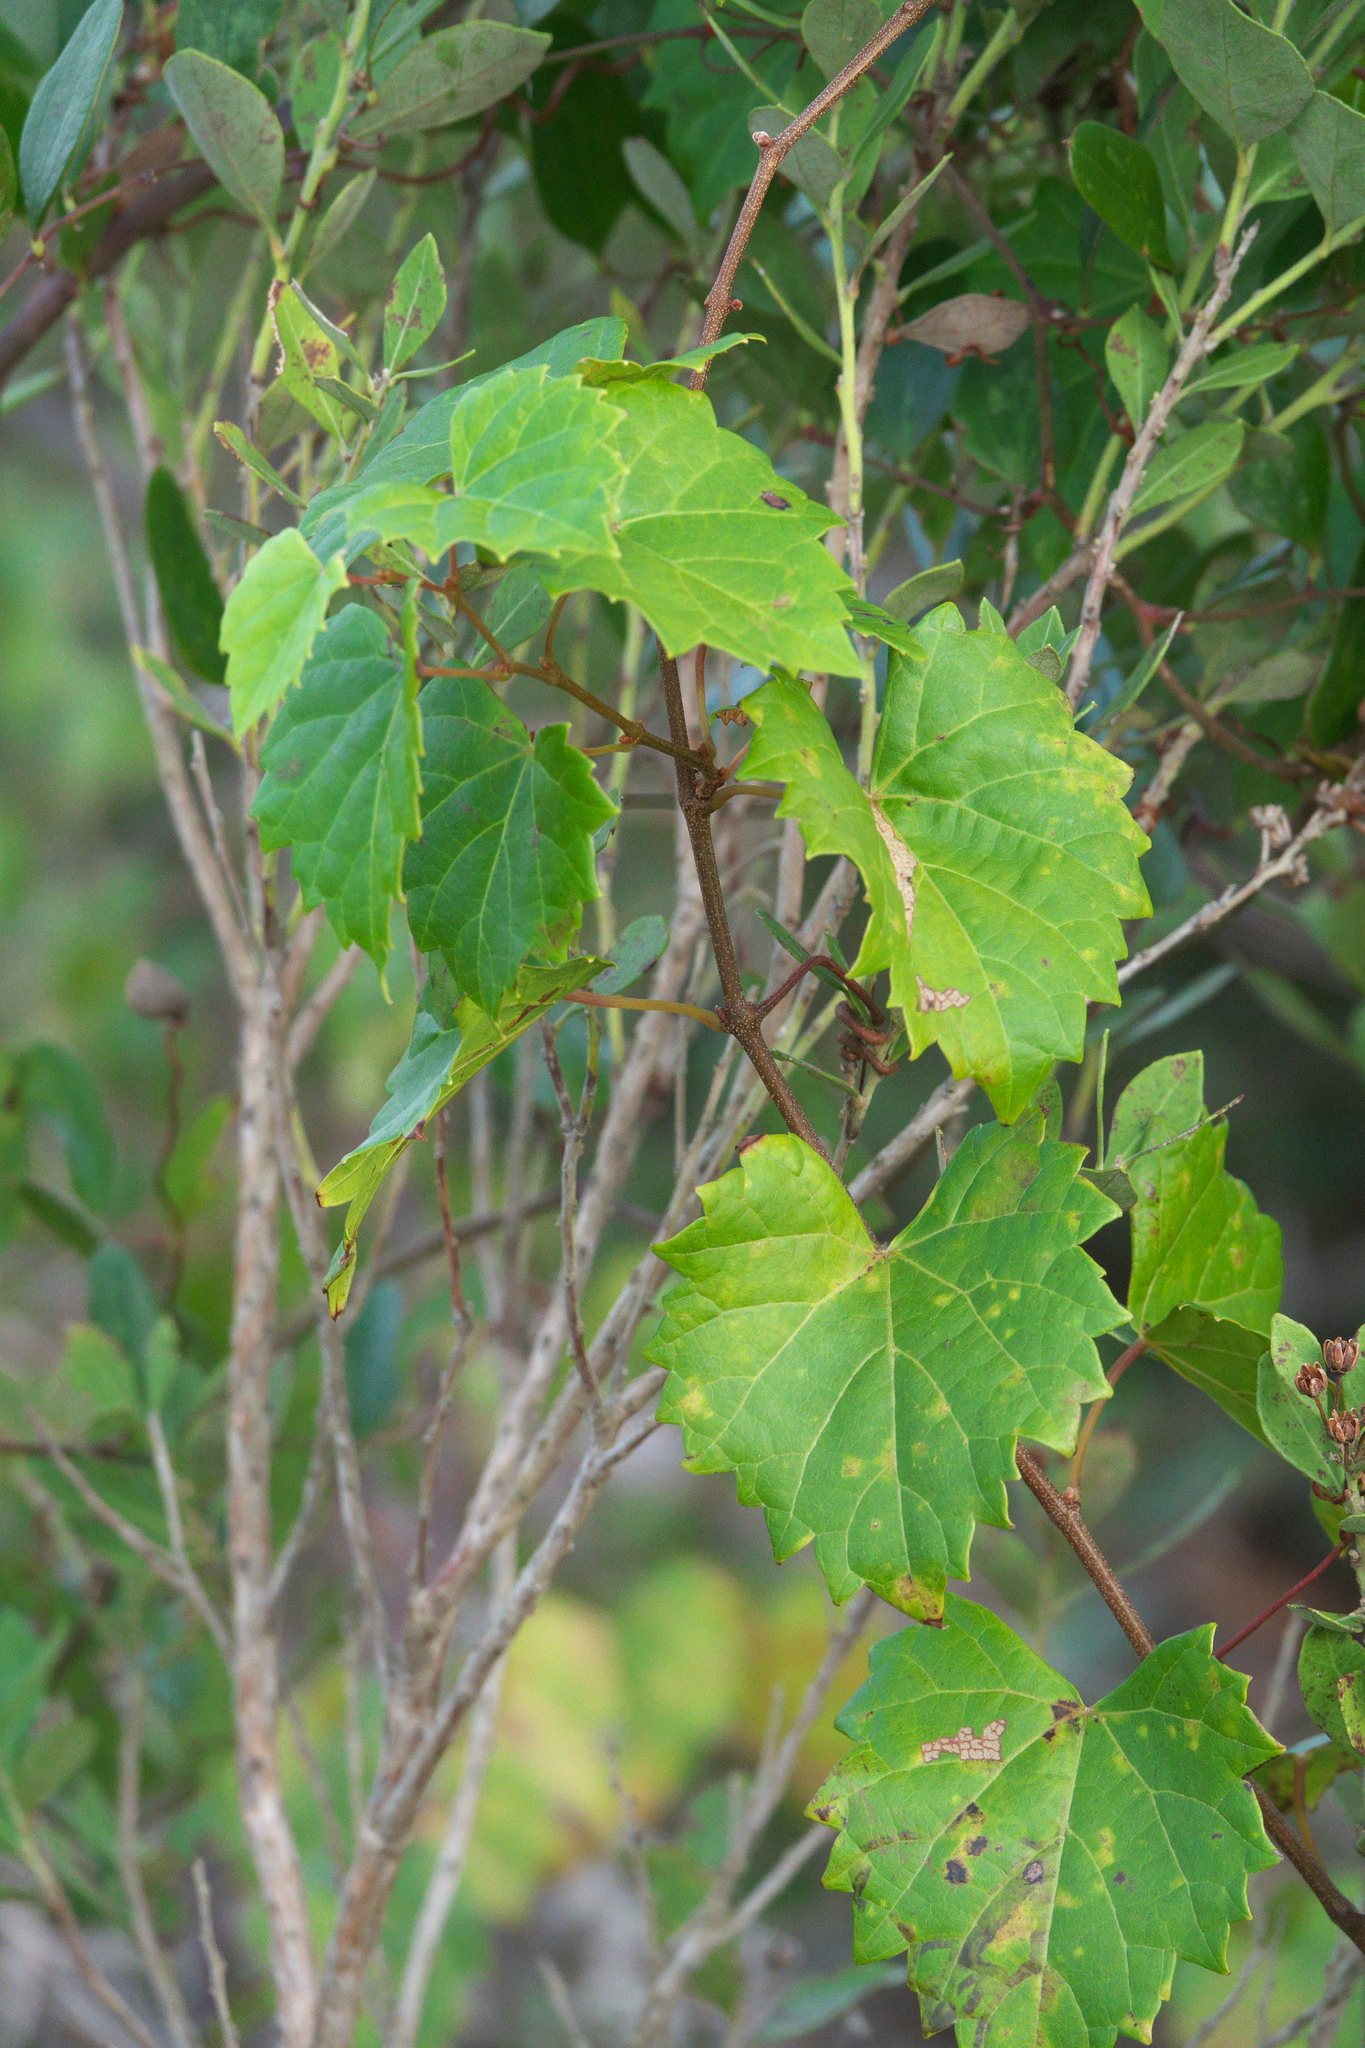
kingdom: Plantae
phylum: Tracheophyta
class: Magnoliopsida
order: Vitales
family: Vitaceae
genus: Vitis
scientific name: Vitis rotundifolia
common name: Muscadine grape
